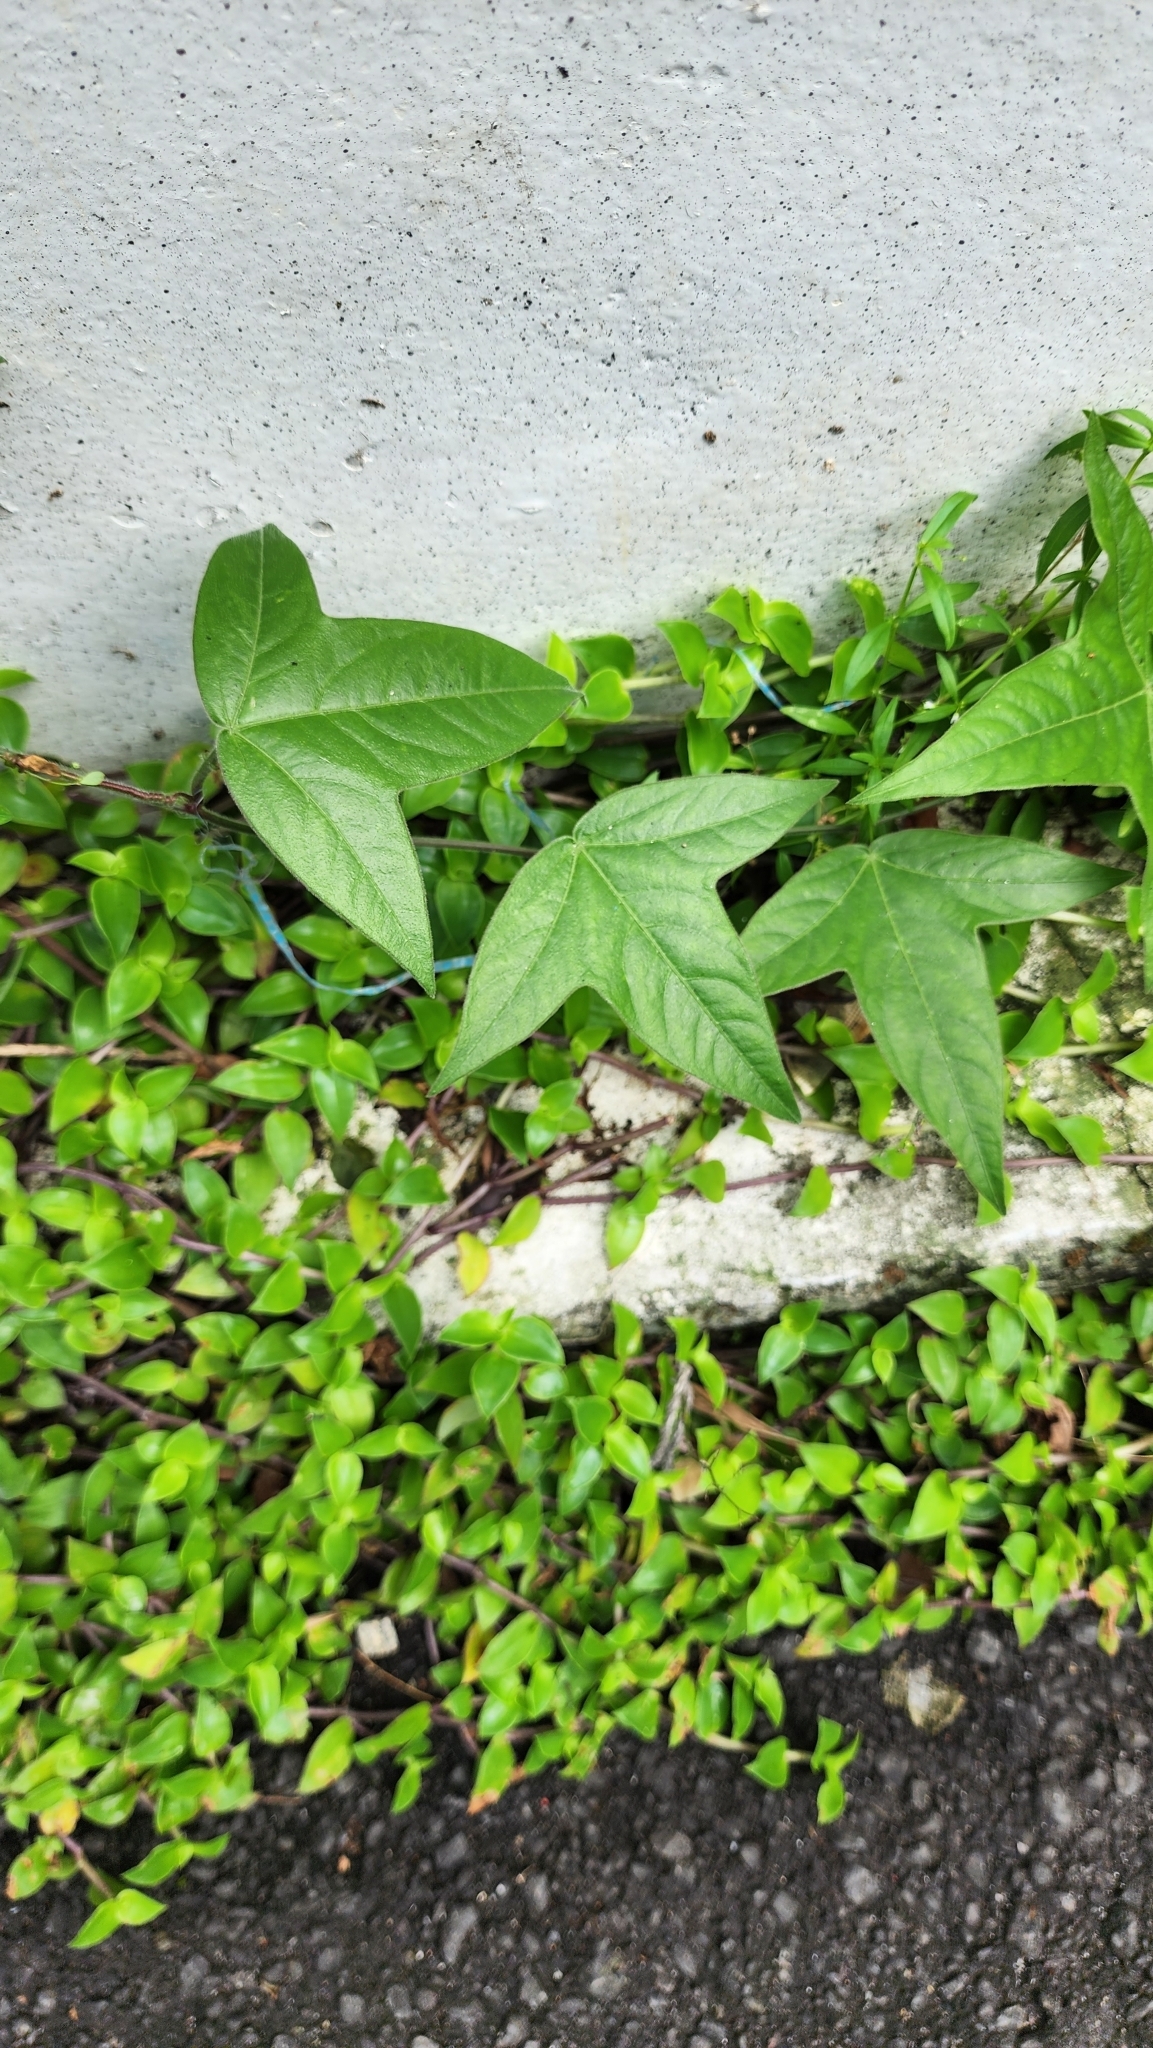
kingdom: Plantae
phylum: Tracheophyta
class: Magnoliopsida
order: Malpighiales
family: Passifloraceae
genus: Passiflora
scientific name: Passiflora suberosa
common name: Wild passionfruit
